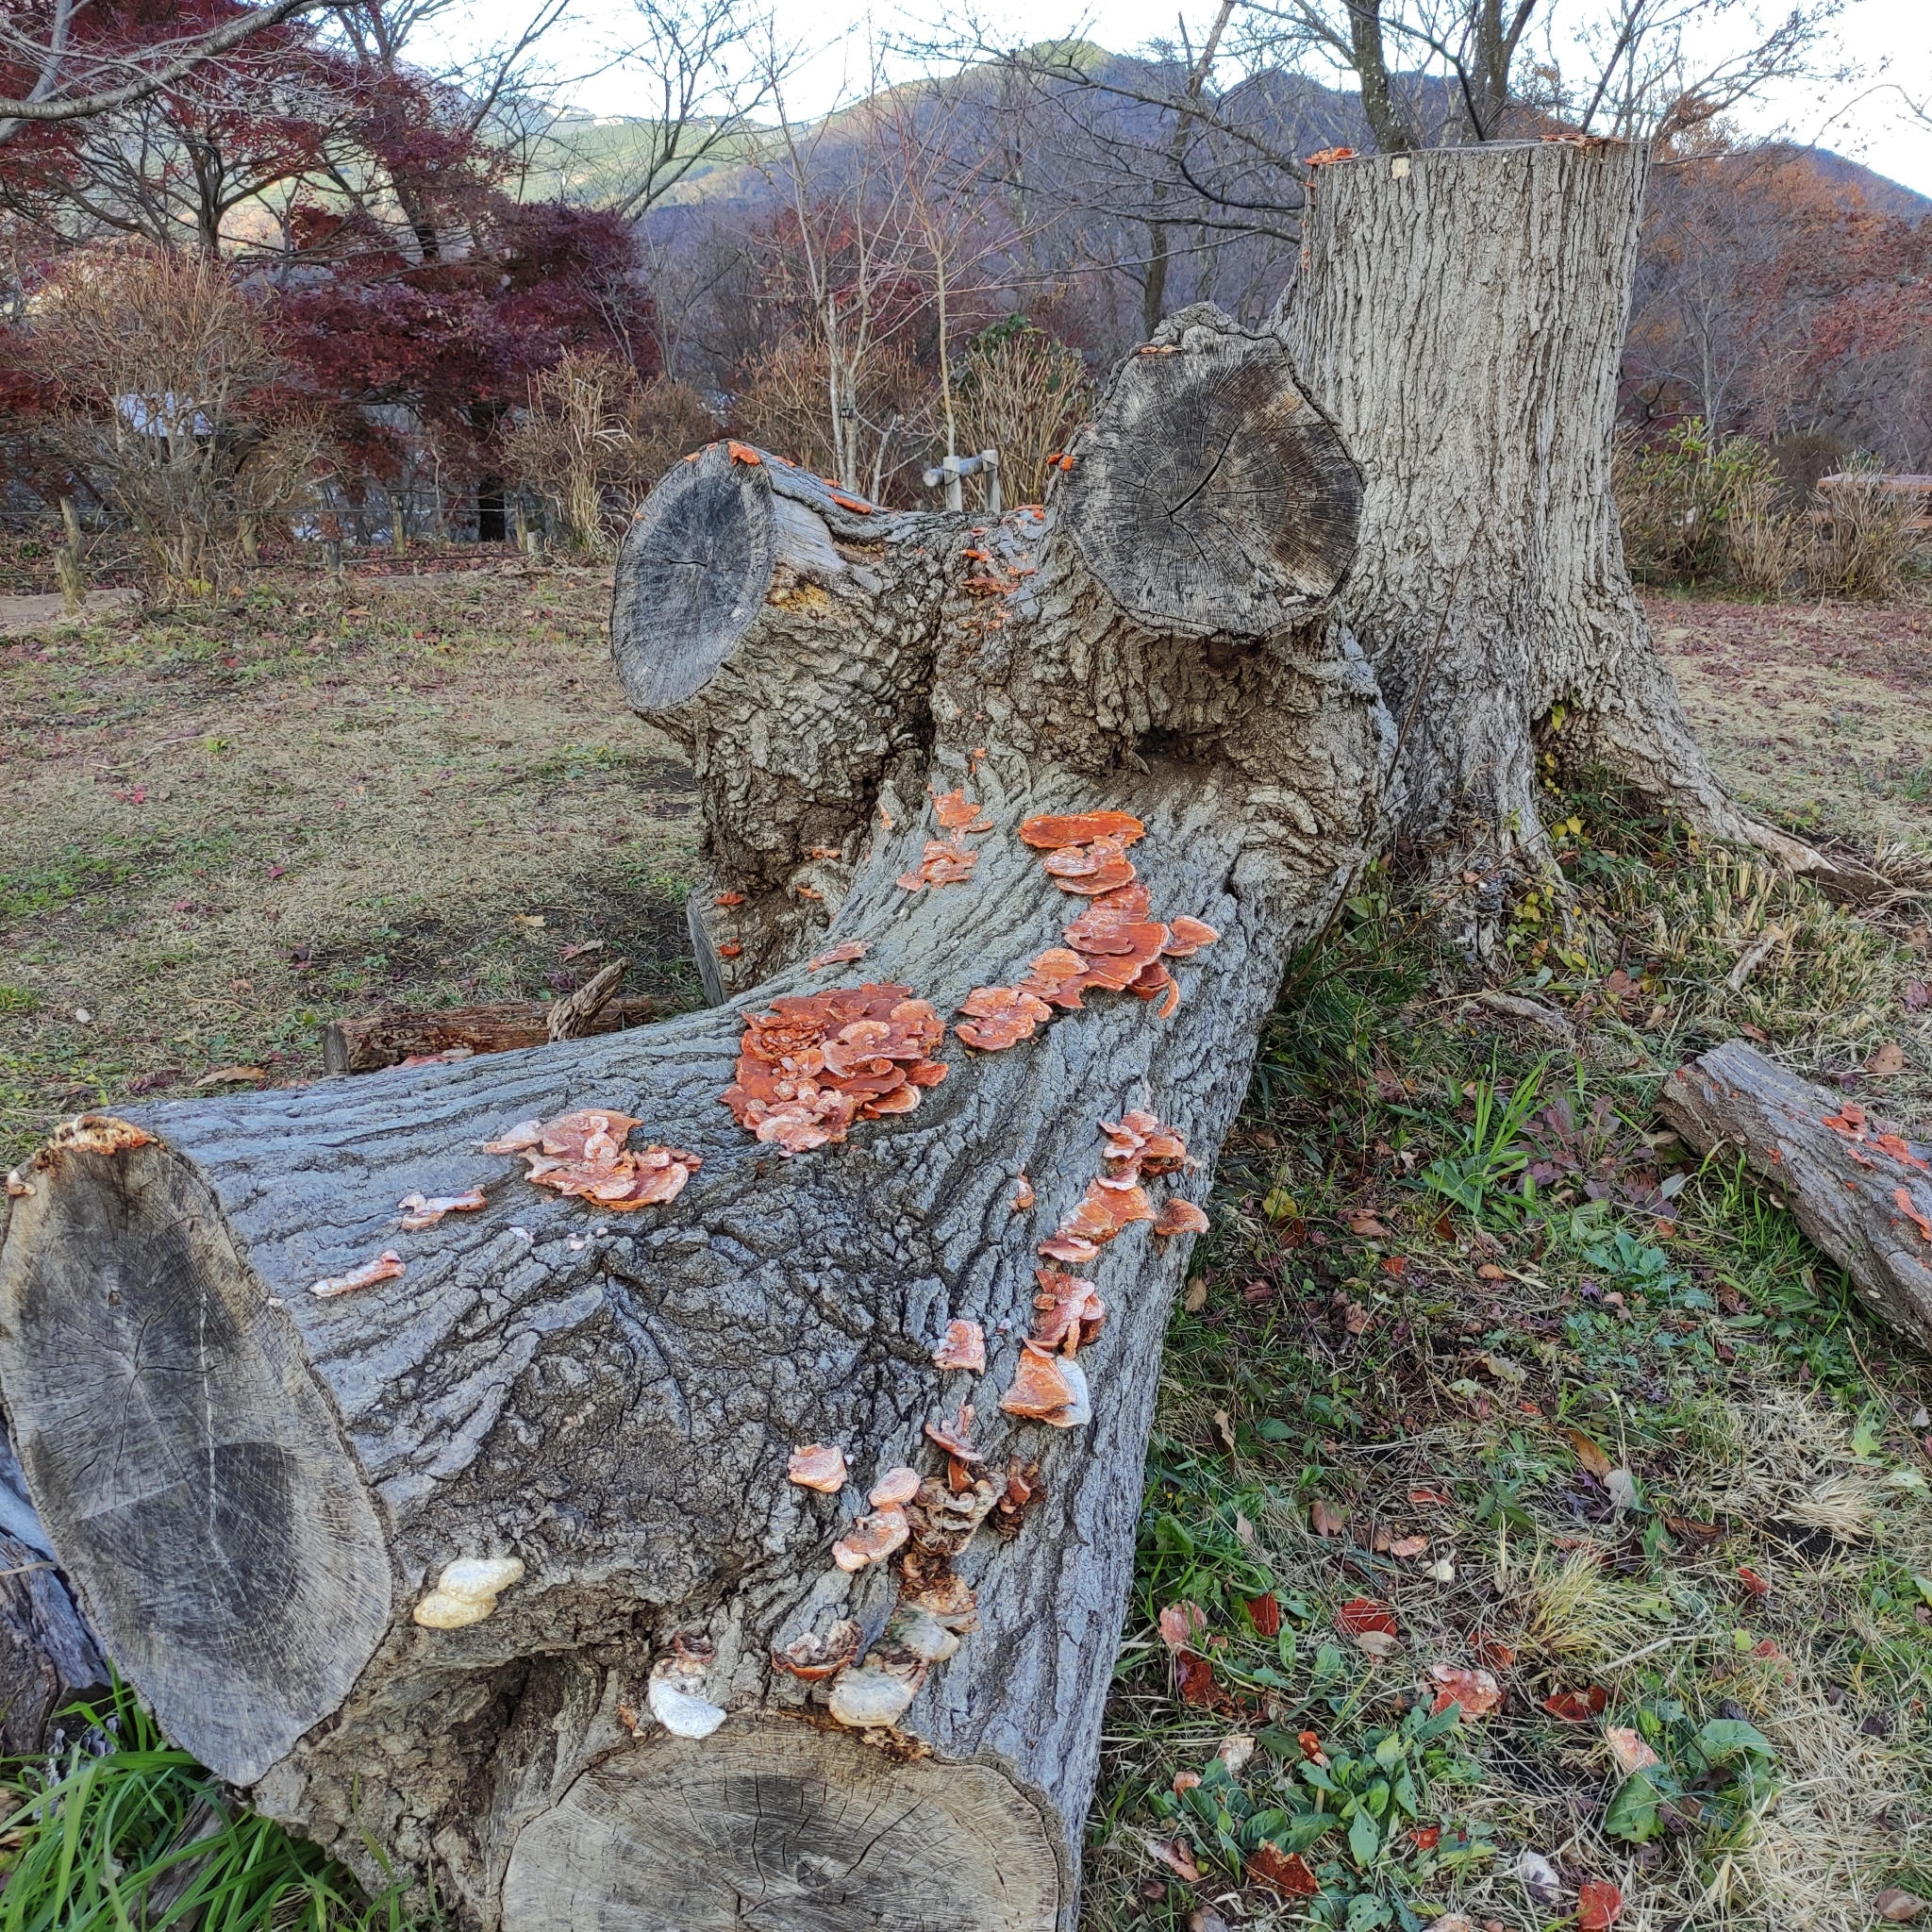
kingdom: Fungi
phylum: Basidiomycota
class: Agaricomycetes
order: Polyporales
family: Polyporaceae
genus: Trametes
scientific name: Trametes coccinea
